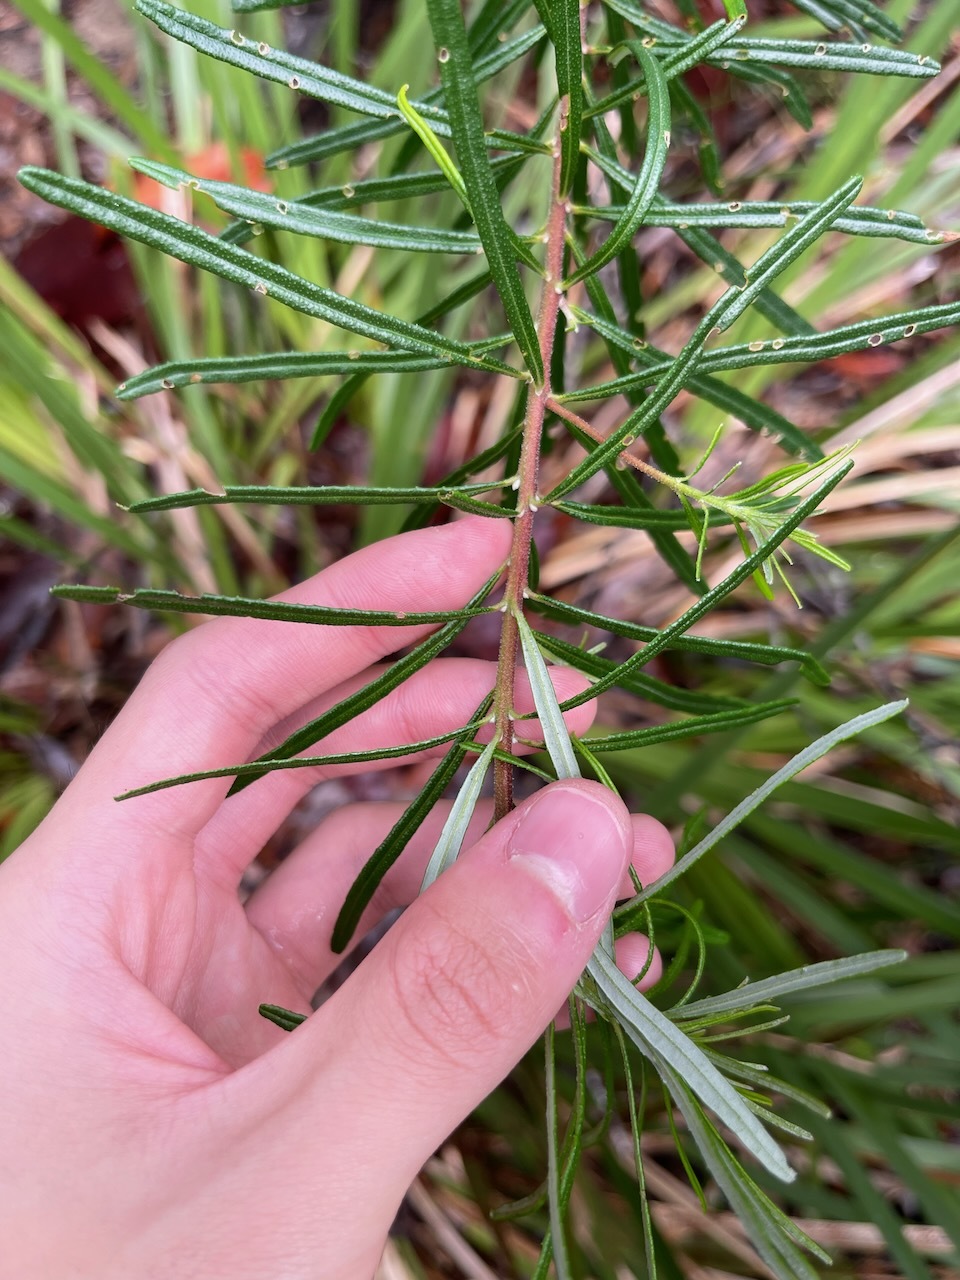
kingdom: Plantae
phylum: Tracheophyta
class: Magnoliopsida
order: Sapindales
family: Rutaceae
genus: Leionema
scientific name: Leionema dentatum
